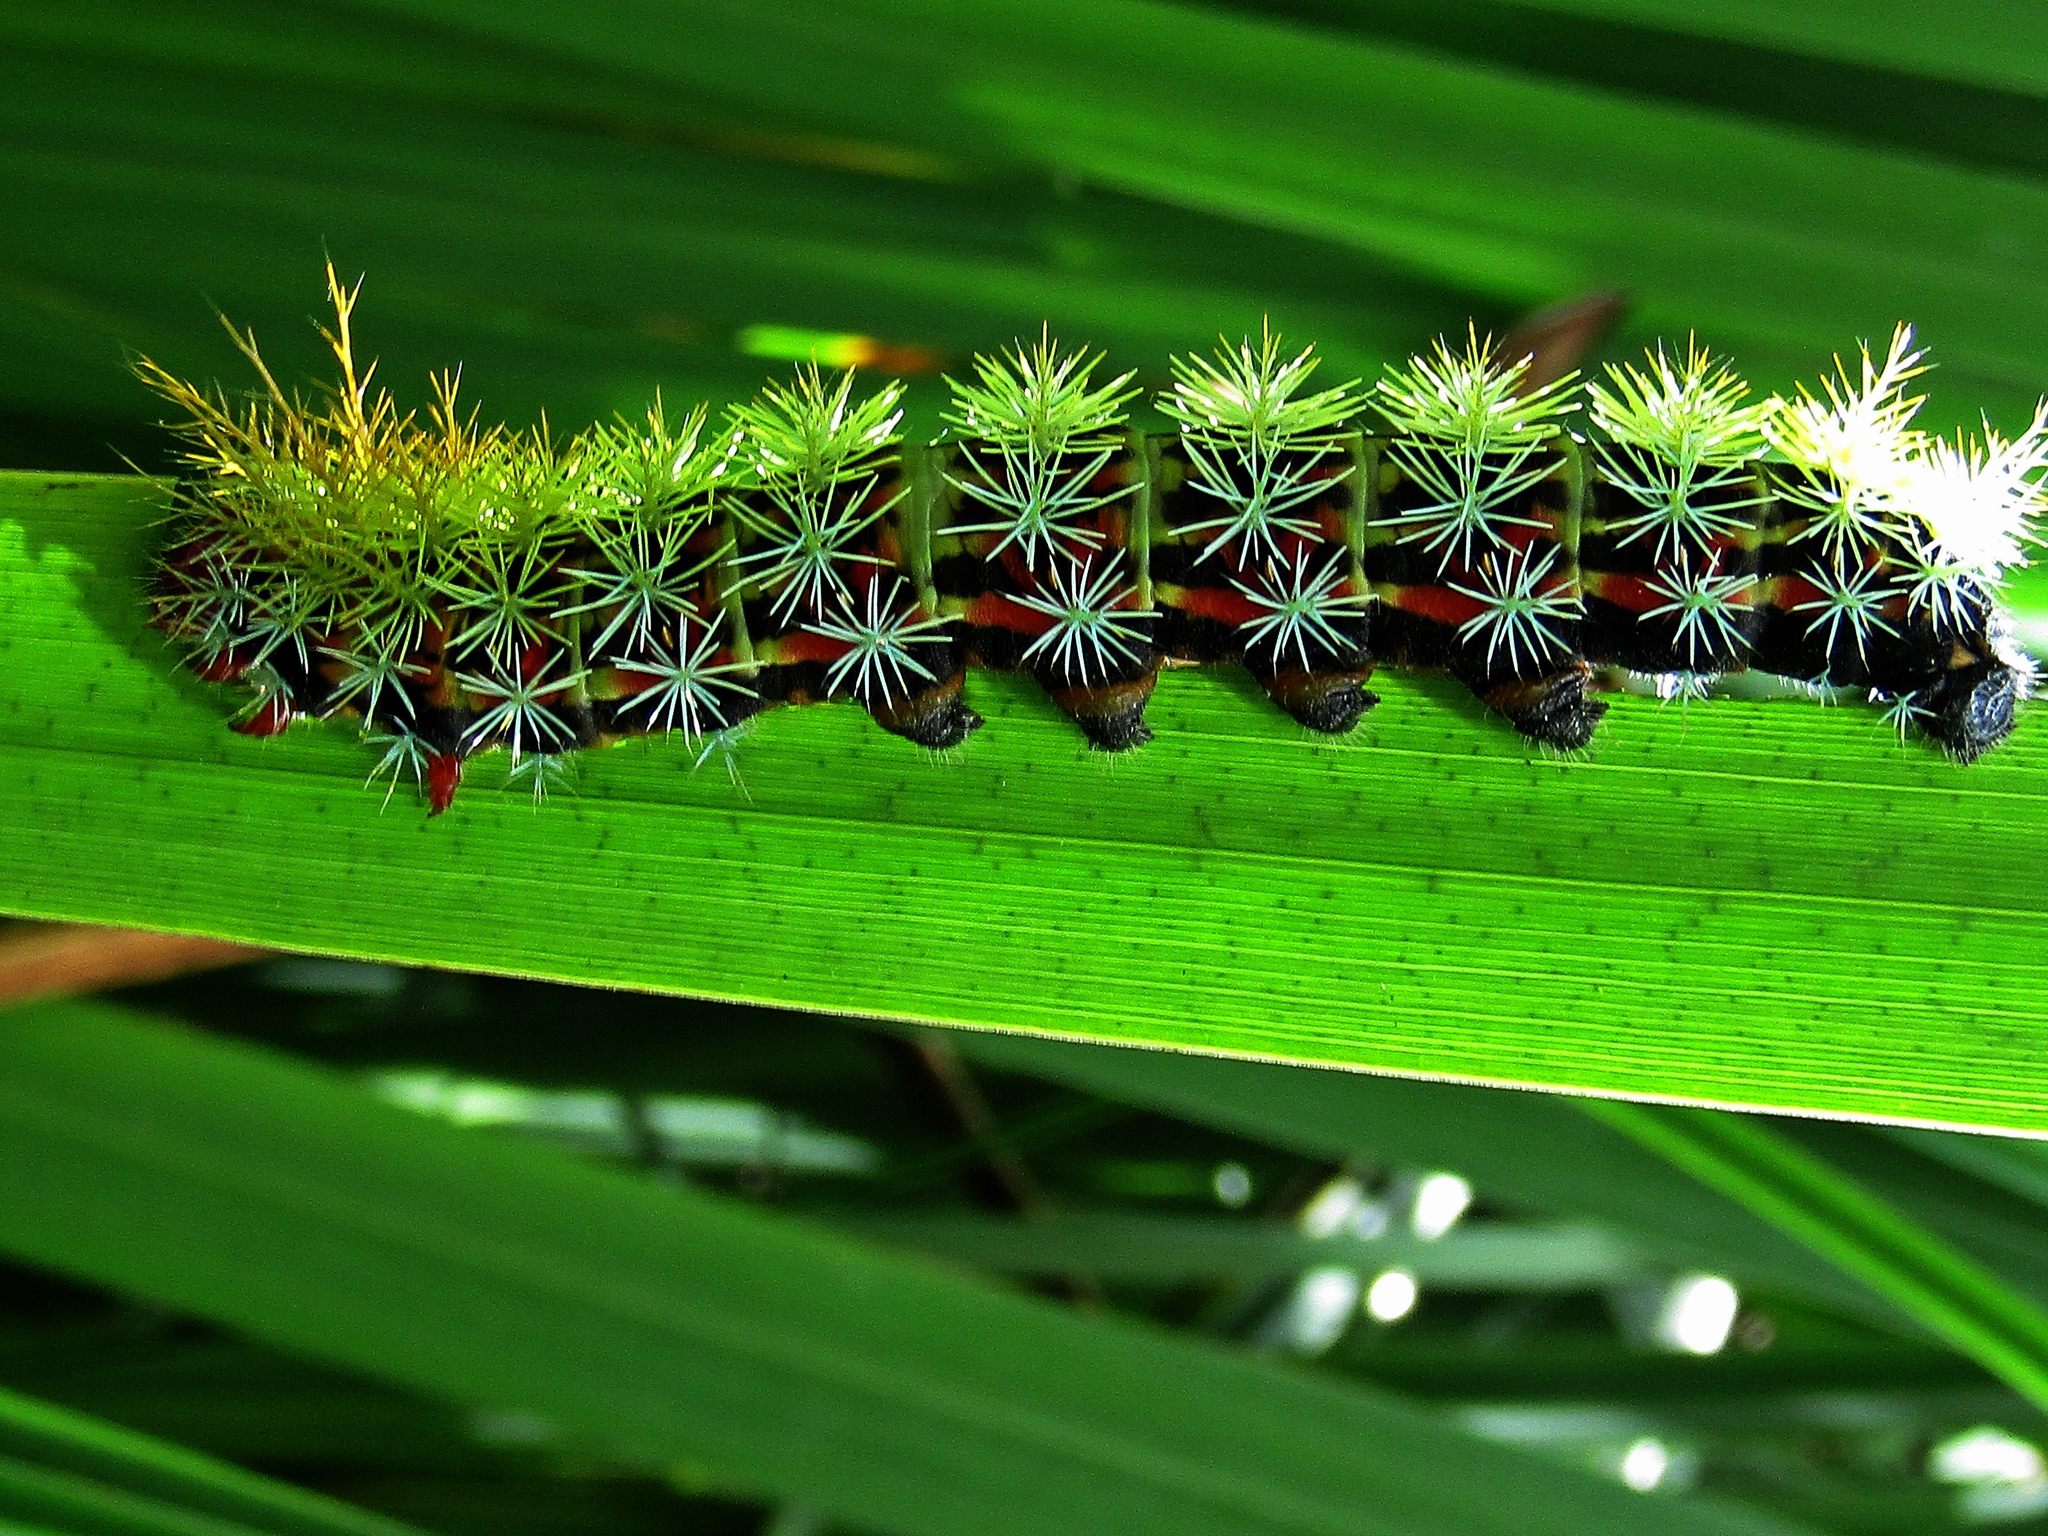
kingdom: Animalia
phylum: Arthropoda
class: Insecta
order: Lepidoptera
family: Saturniidae
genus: Pseudautomeris
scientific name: Pseudautomeris grammivora
